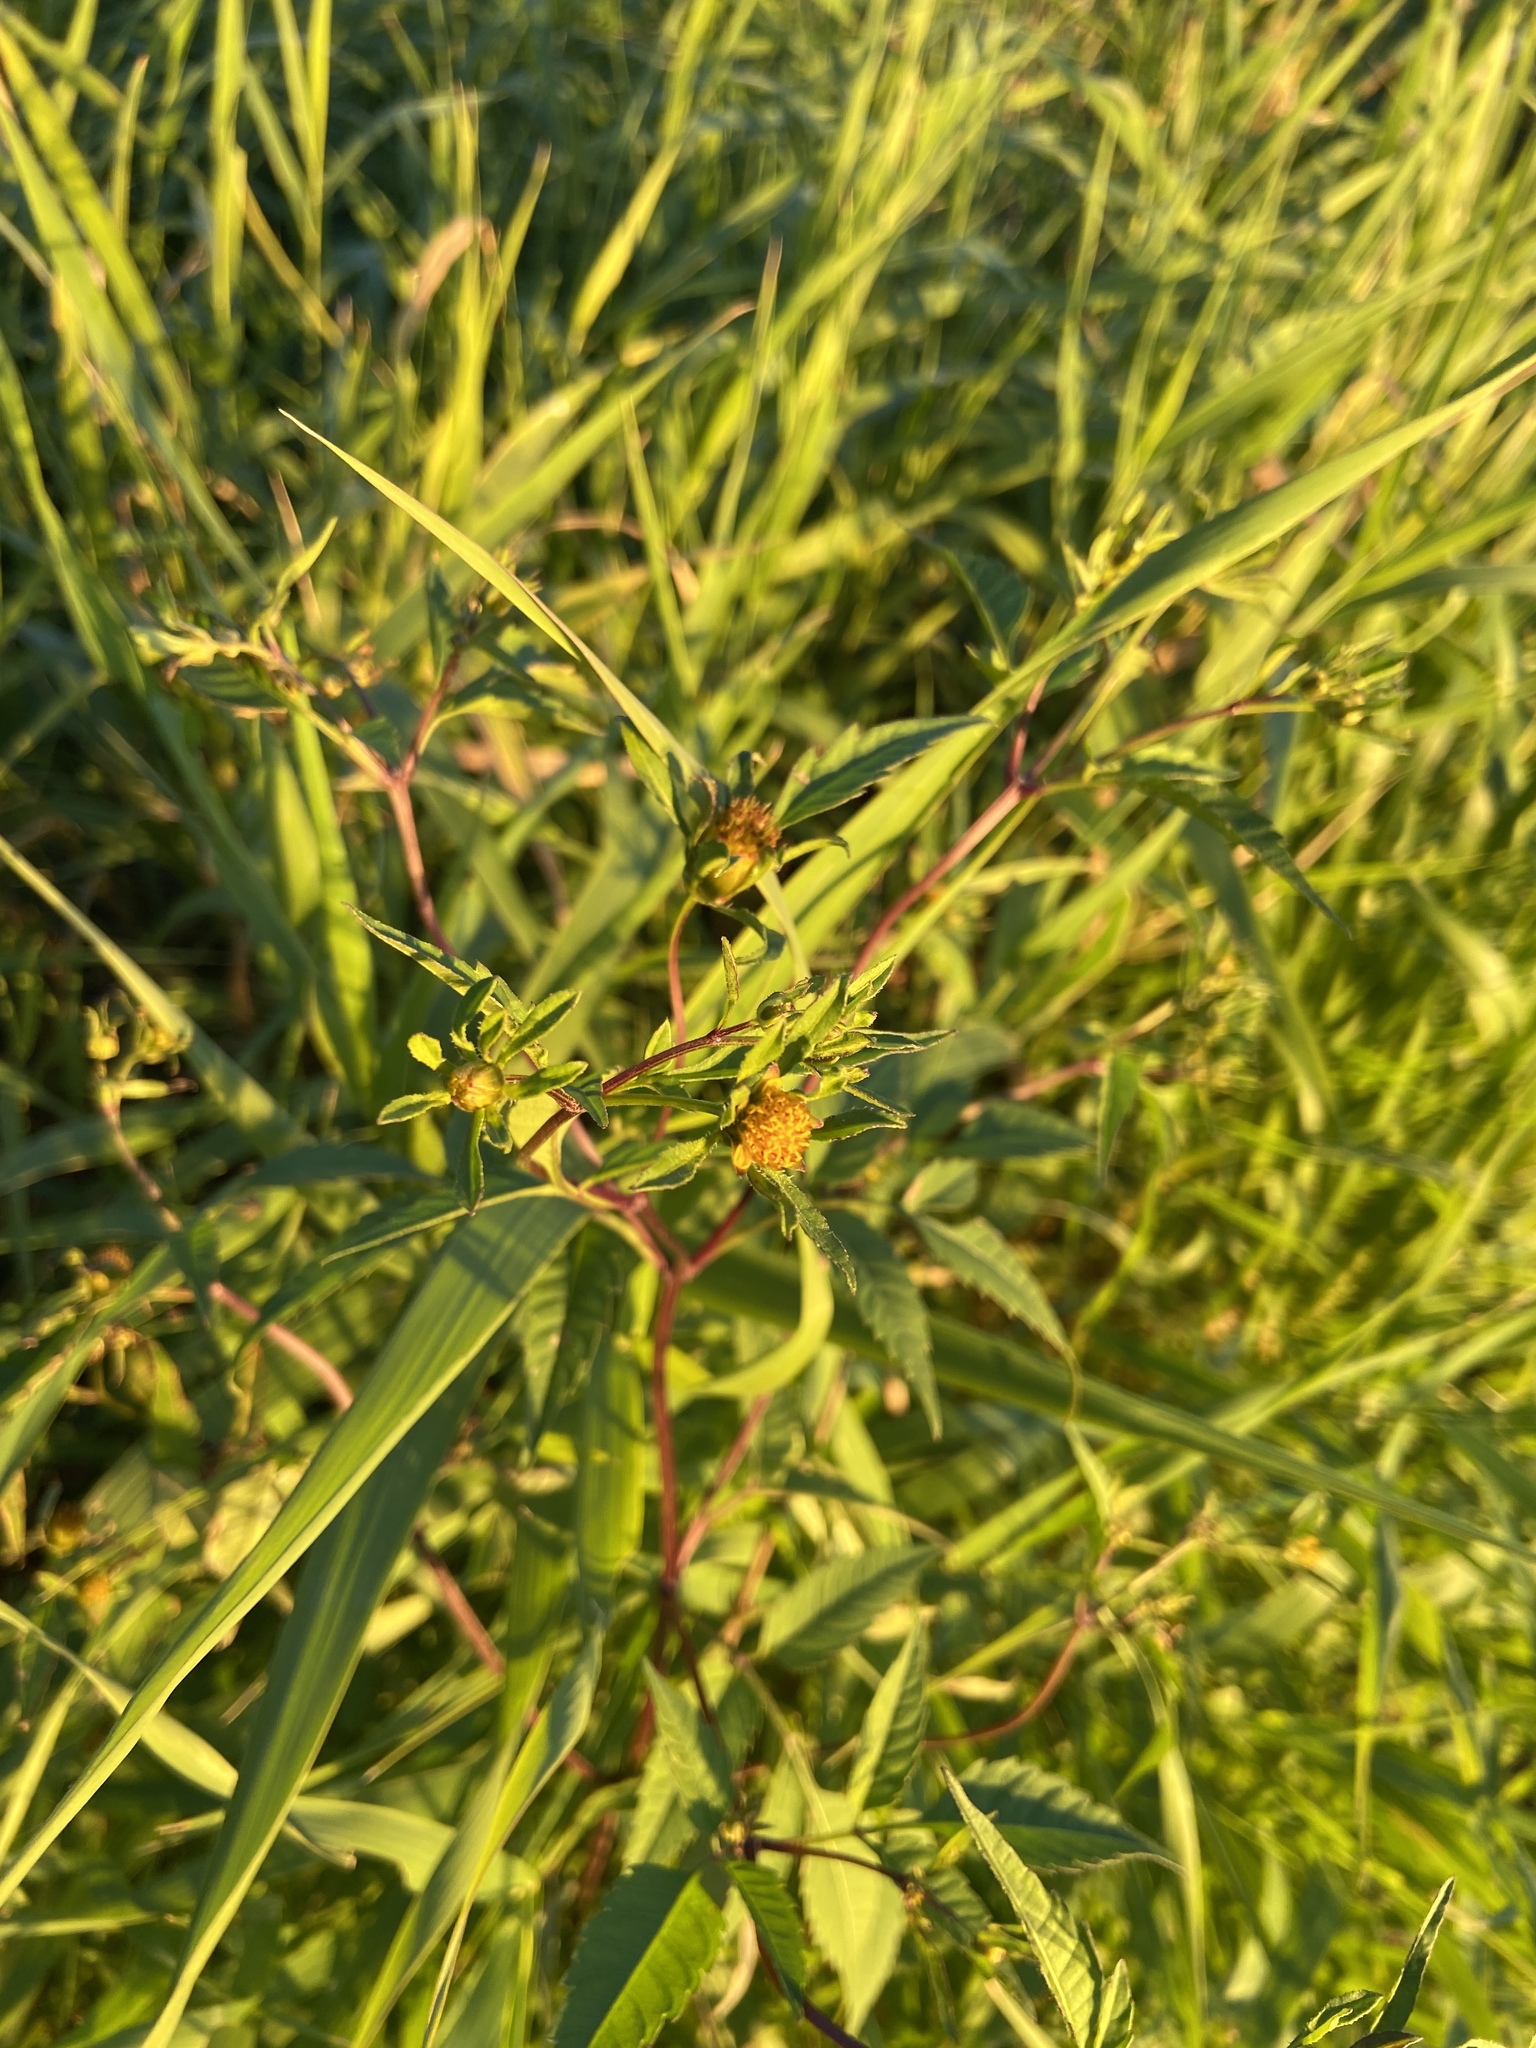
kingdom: Plantae
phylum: Tracheophyta
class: Magnoliopsida
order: Asterales
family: Asteraceae
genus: Bidens
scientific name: Bidens frondosa
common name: Beggarticks
